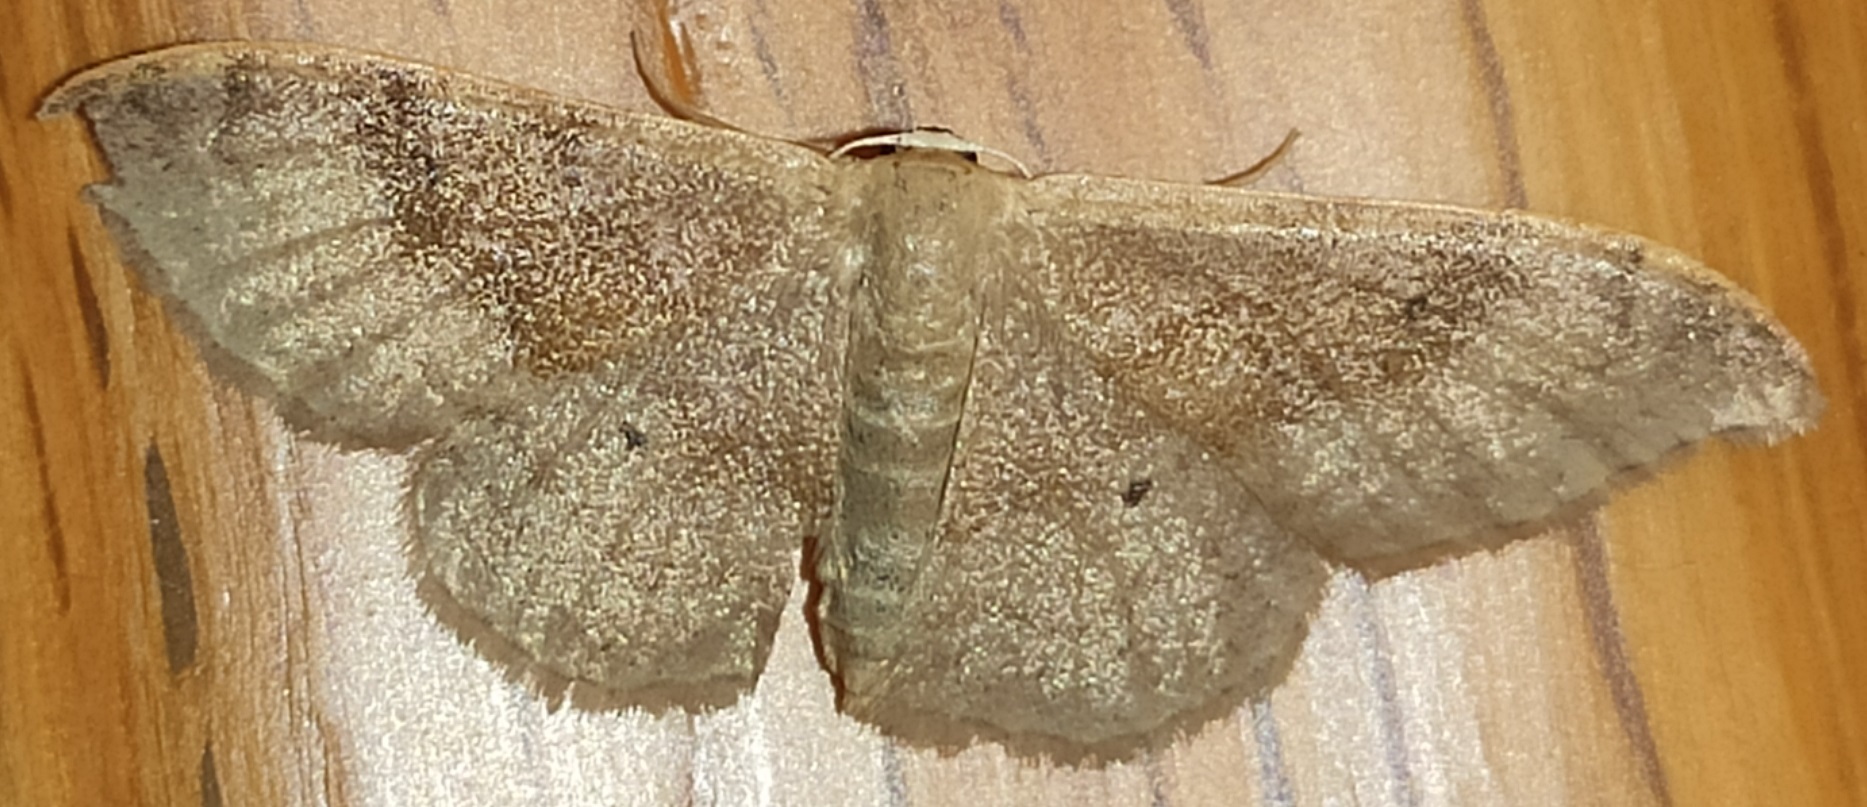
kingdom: Animalia
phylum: Arthropoda
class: Insecta
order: Lepidoptera
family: Geometridae
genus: Idaea
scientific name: Idaea degeneraria
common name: Portland ribbon wave
